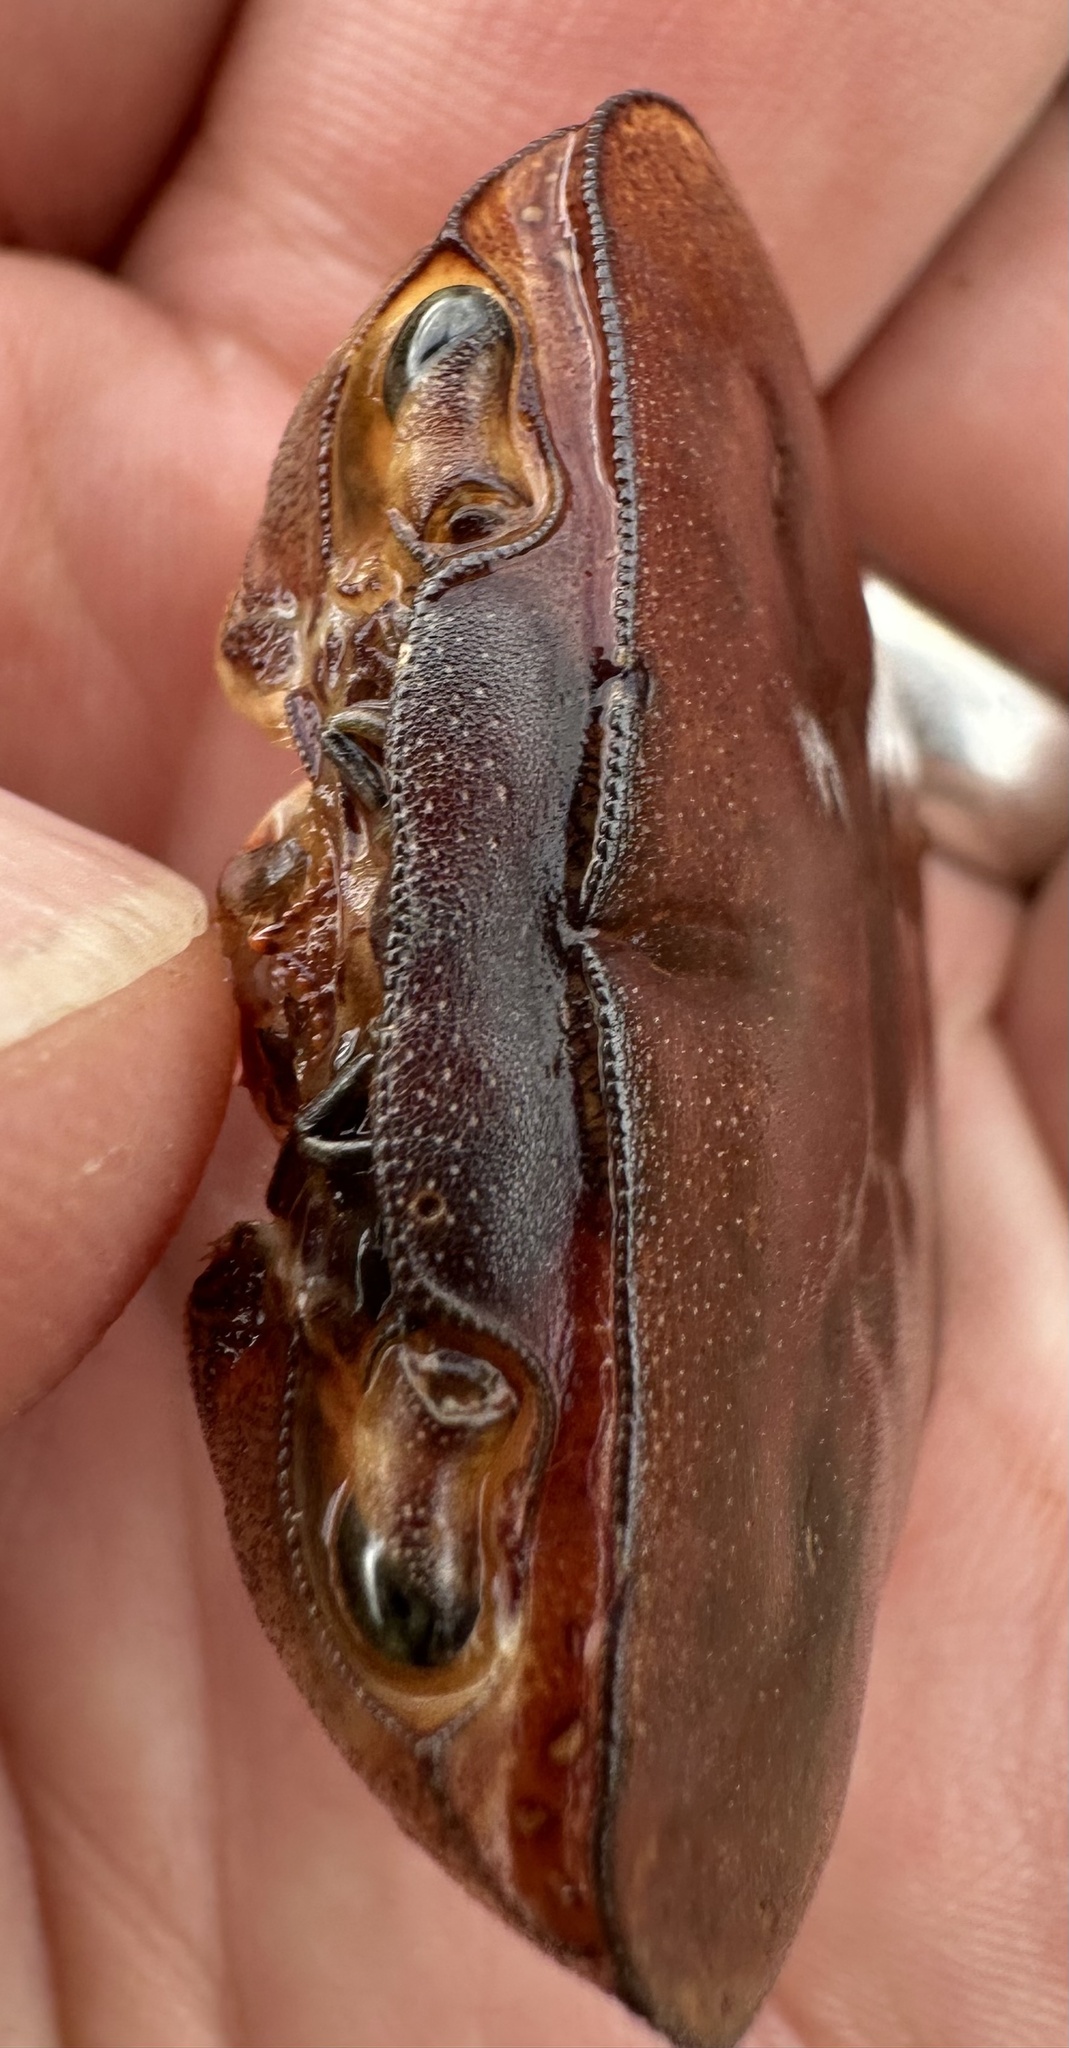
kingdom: Animalia
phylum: Arthropoda
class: Malacostraca
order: Decapoda
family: Potamonautidae
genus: Potamonautes
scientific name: Potamonautes depressus
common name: Flat river crab
